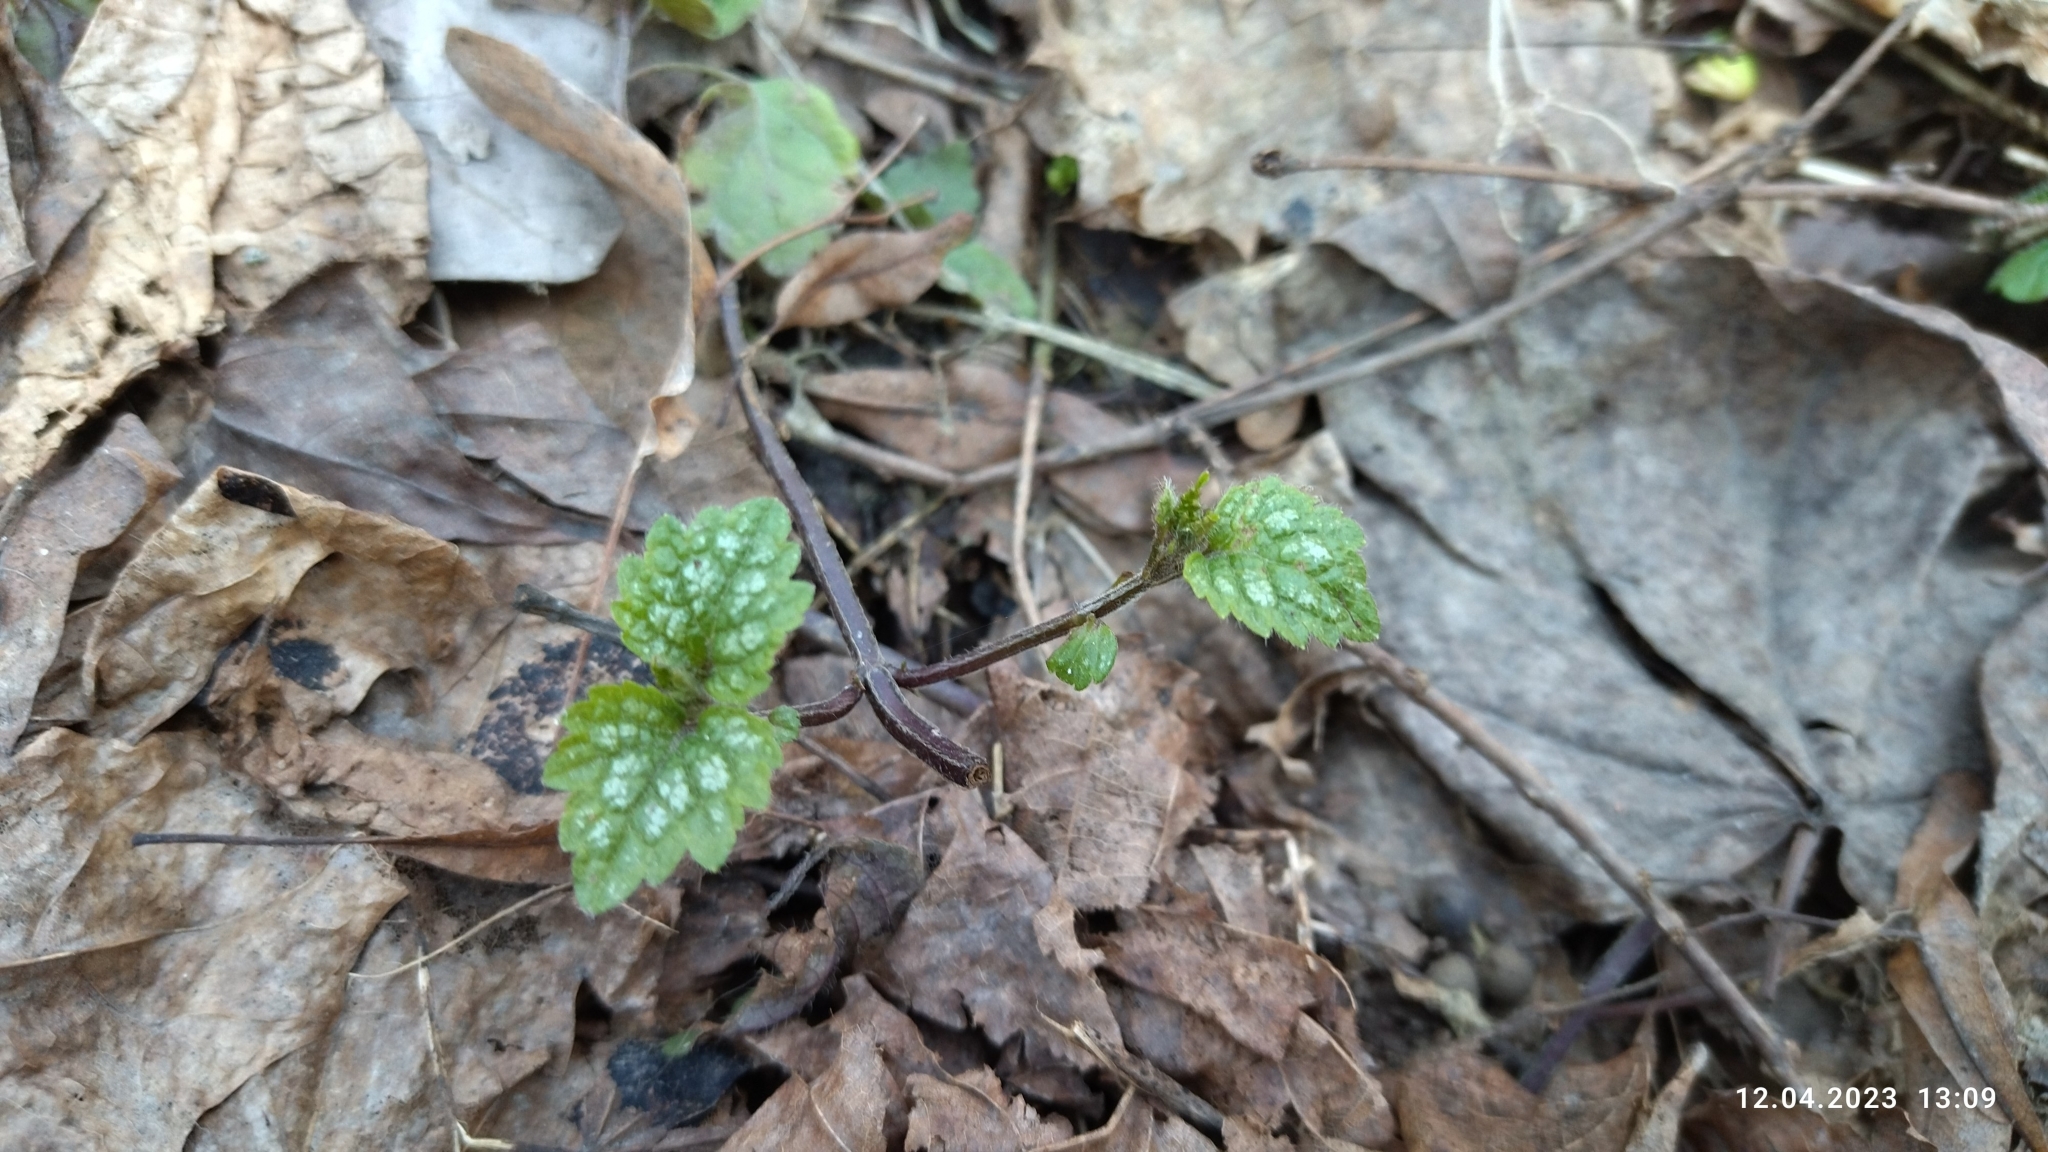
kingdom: Plantae
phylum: Tracheophyta
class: Magnoliopsida
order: Lamiales
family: Lamiaceae
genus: Lamium
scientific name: Lamium galeobdolon
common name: Yellow archangel
